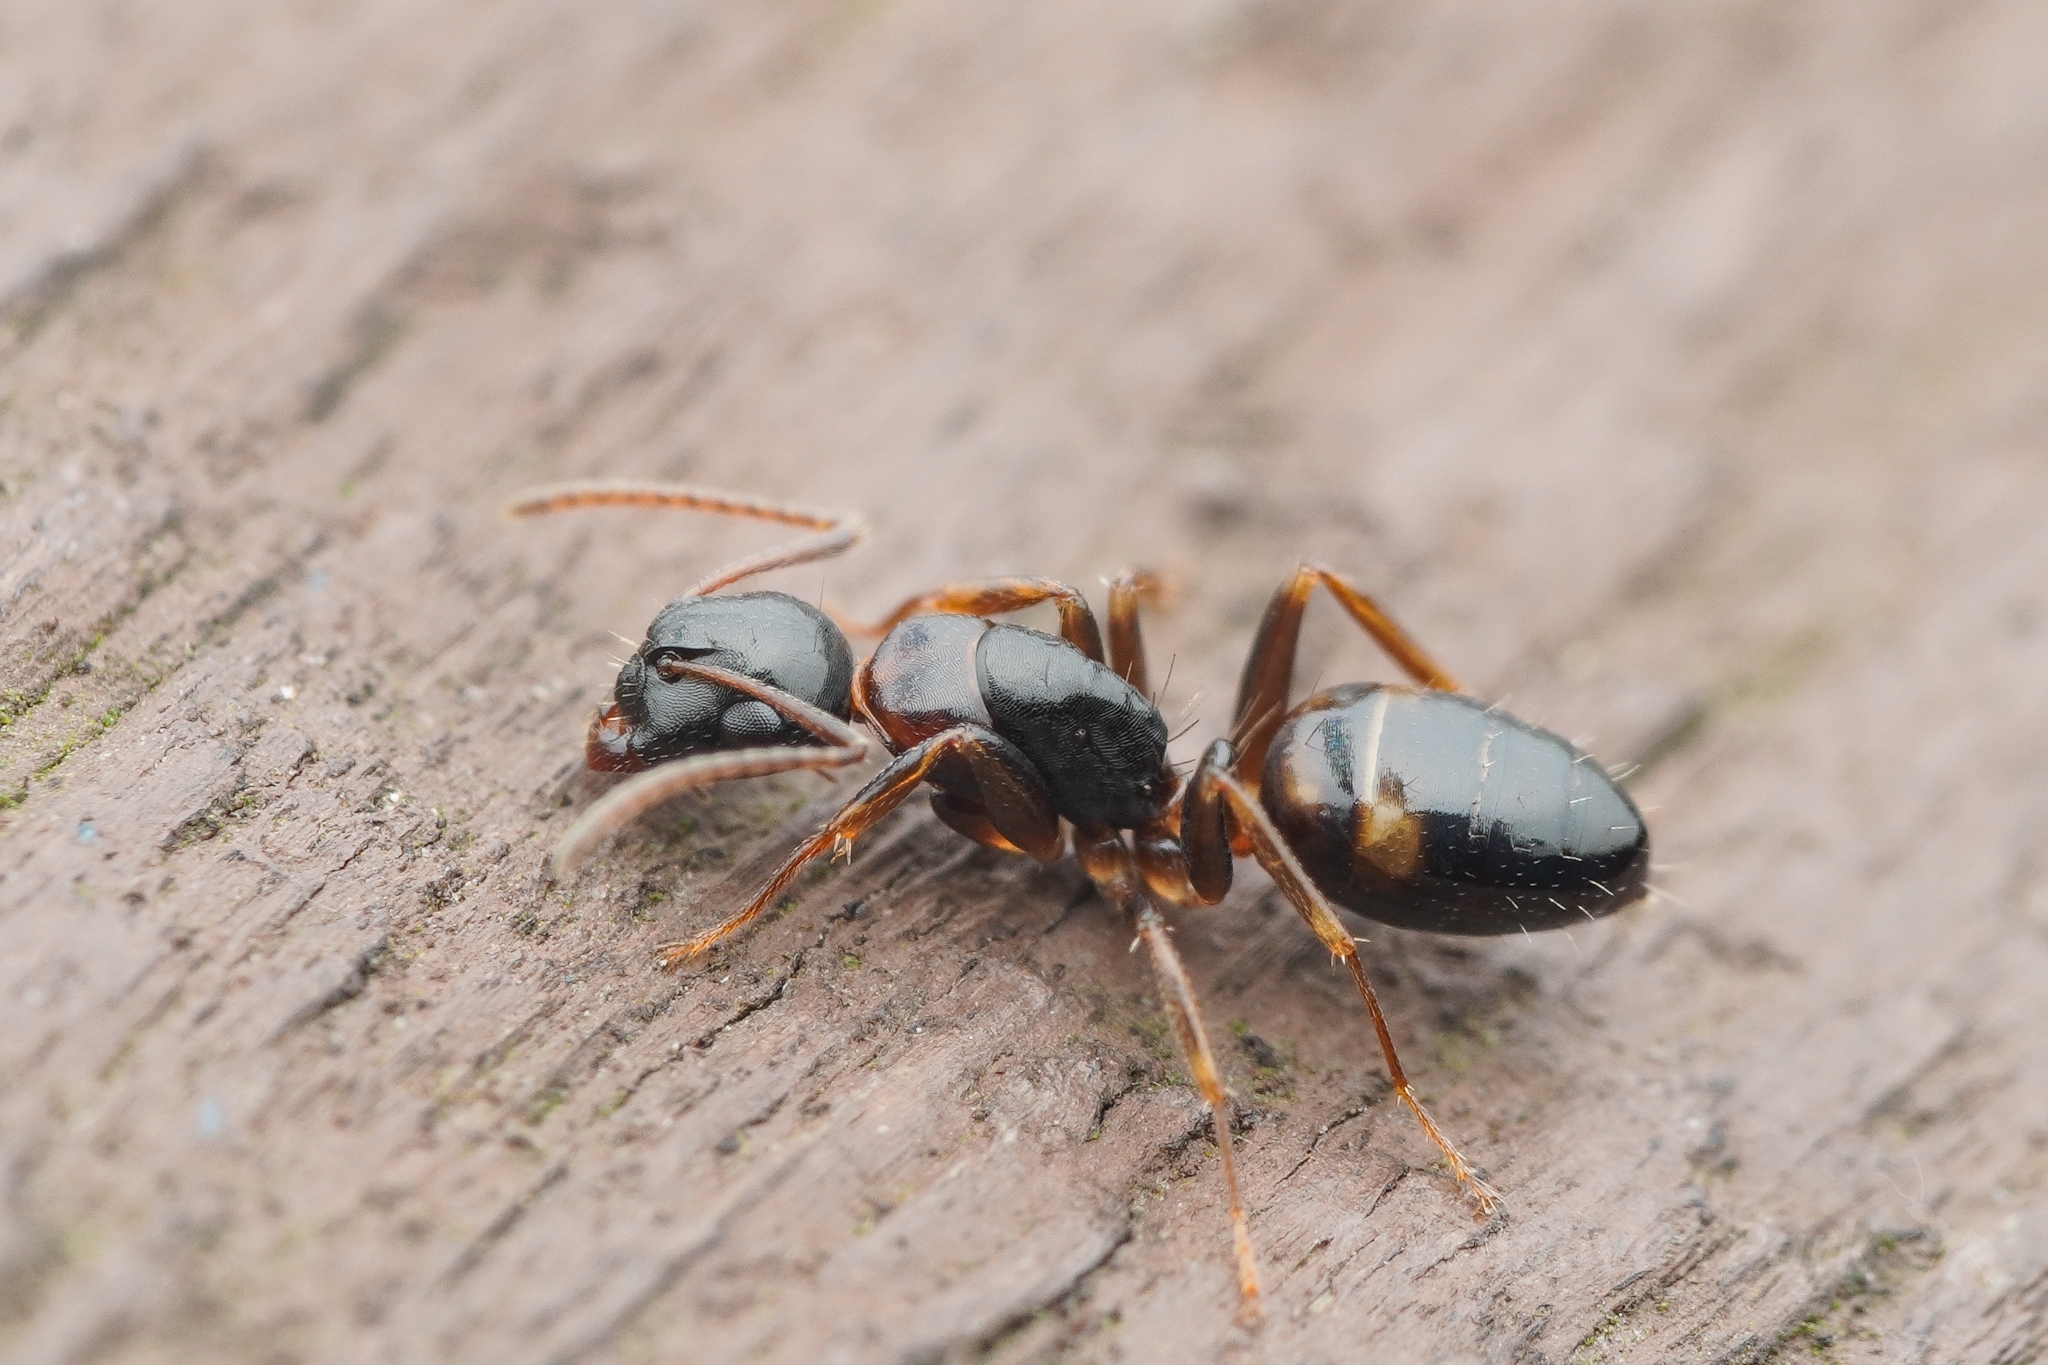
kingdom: Animalia
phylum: Arthropoda
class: Insecta
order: Hymenoptera
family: Formicidae
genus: Camponotus
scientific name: Camponotus yamaokai
